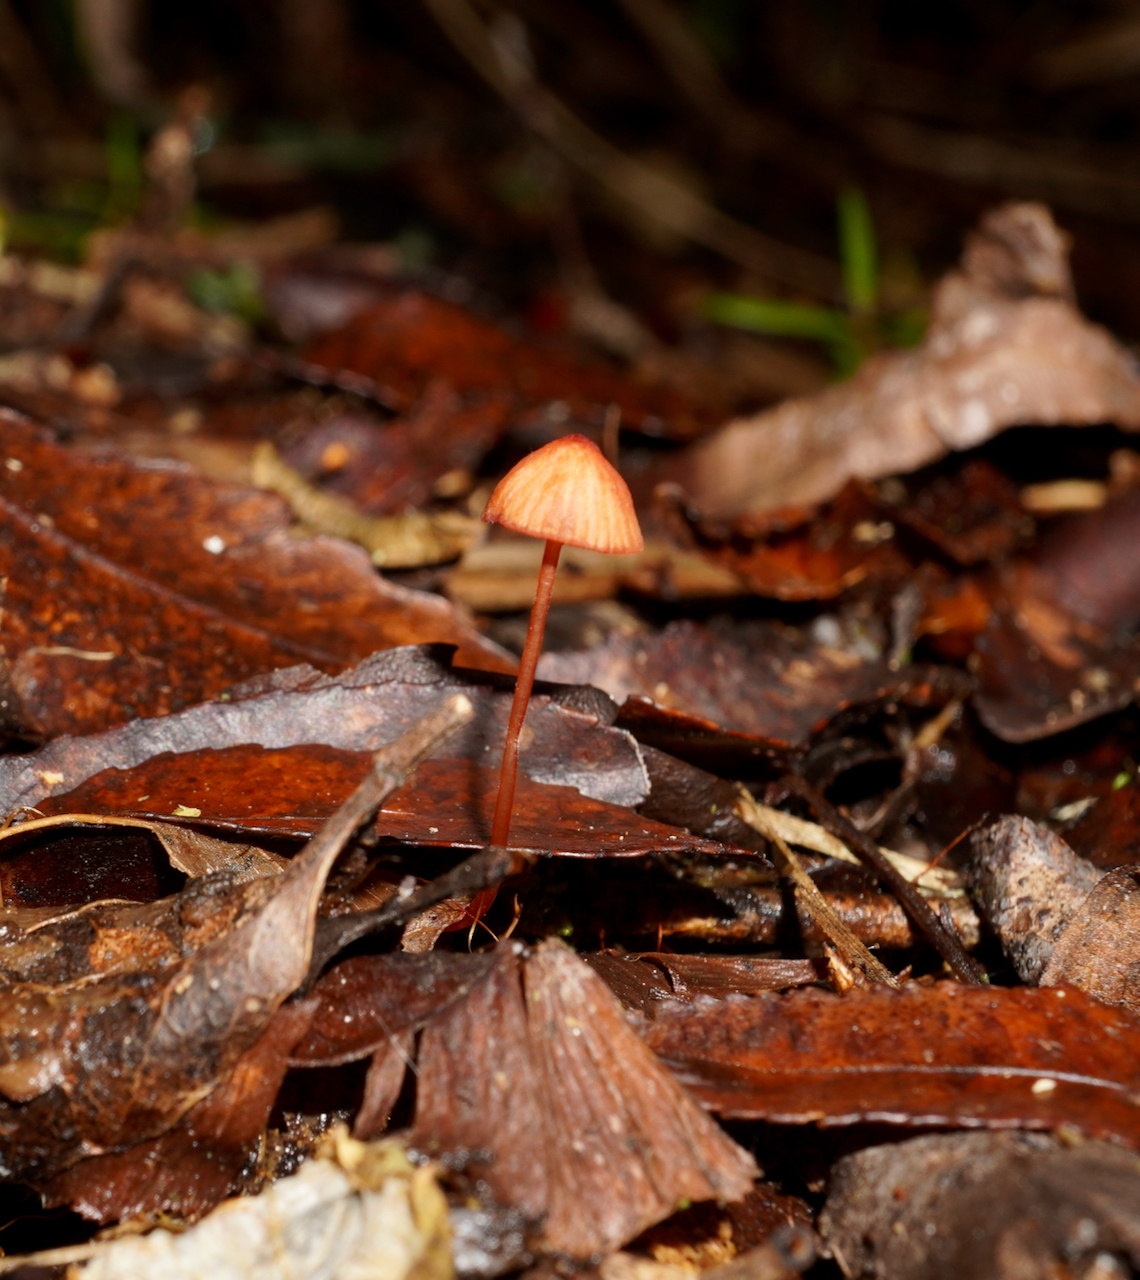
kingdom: Fungi
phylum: Basidiomycota
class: Agaricomycetes
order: Agaricales
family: Mycenaceae
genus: Mycena
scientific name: Mycena ura
